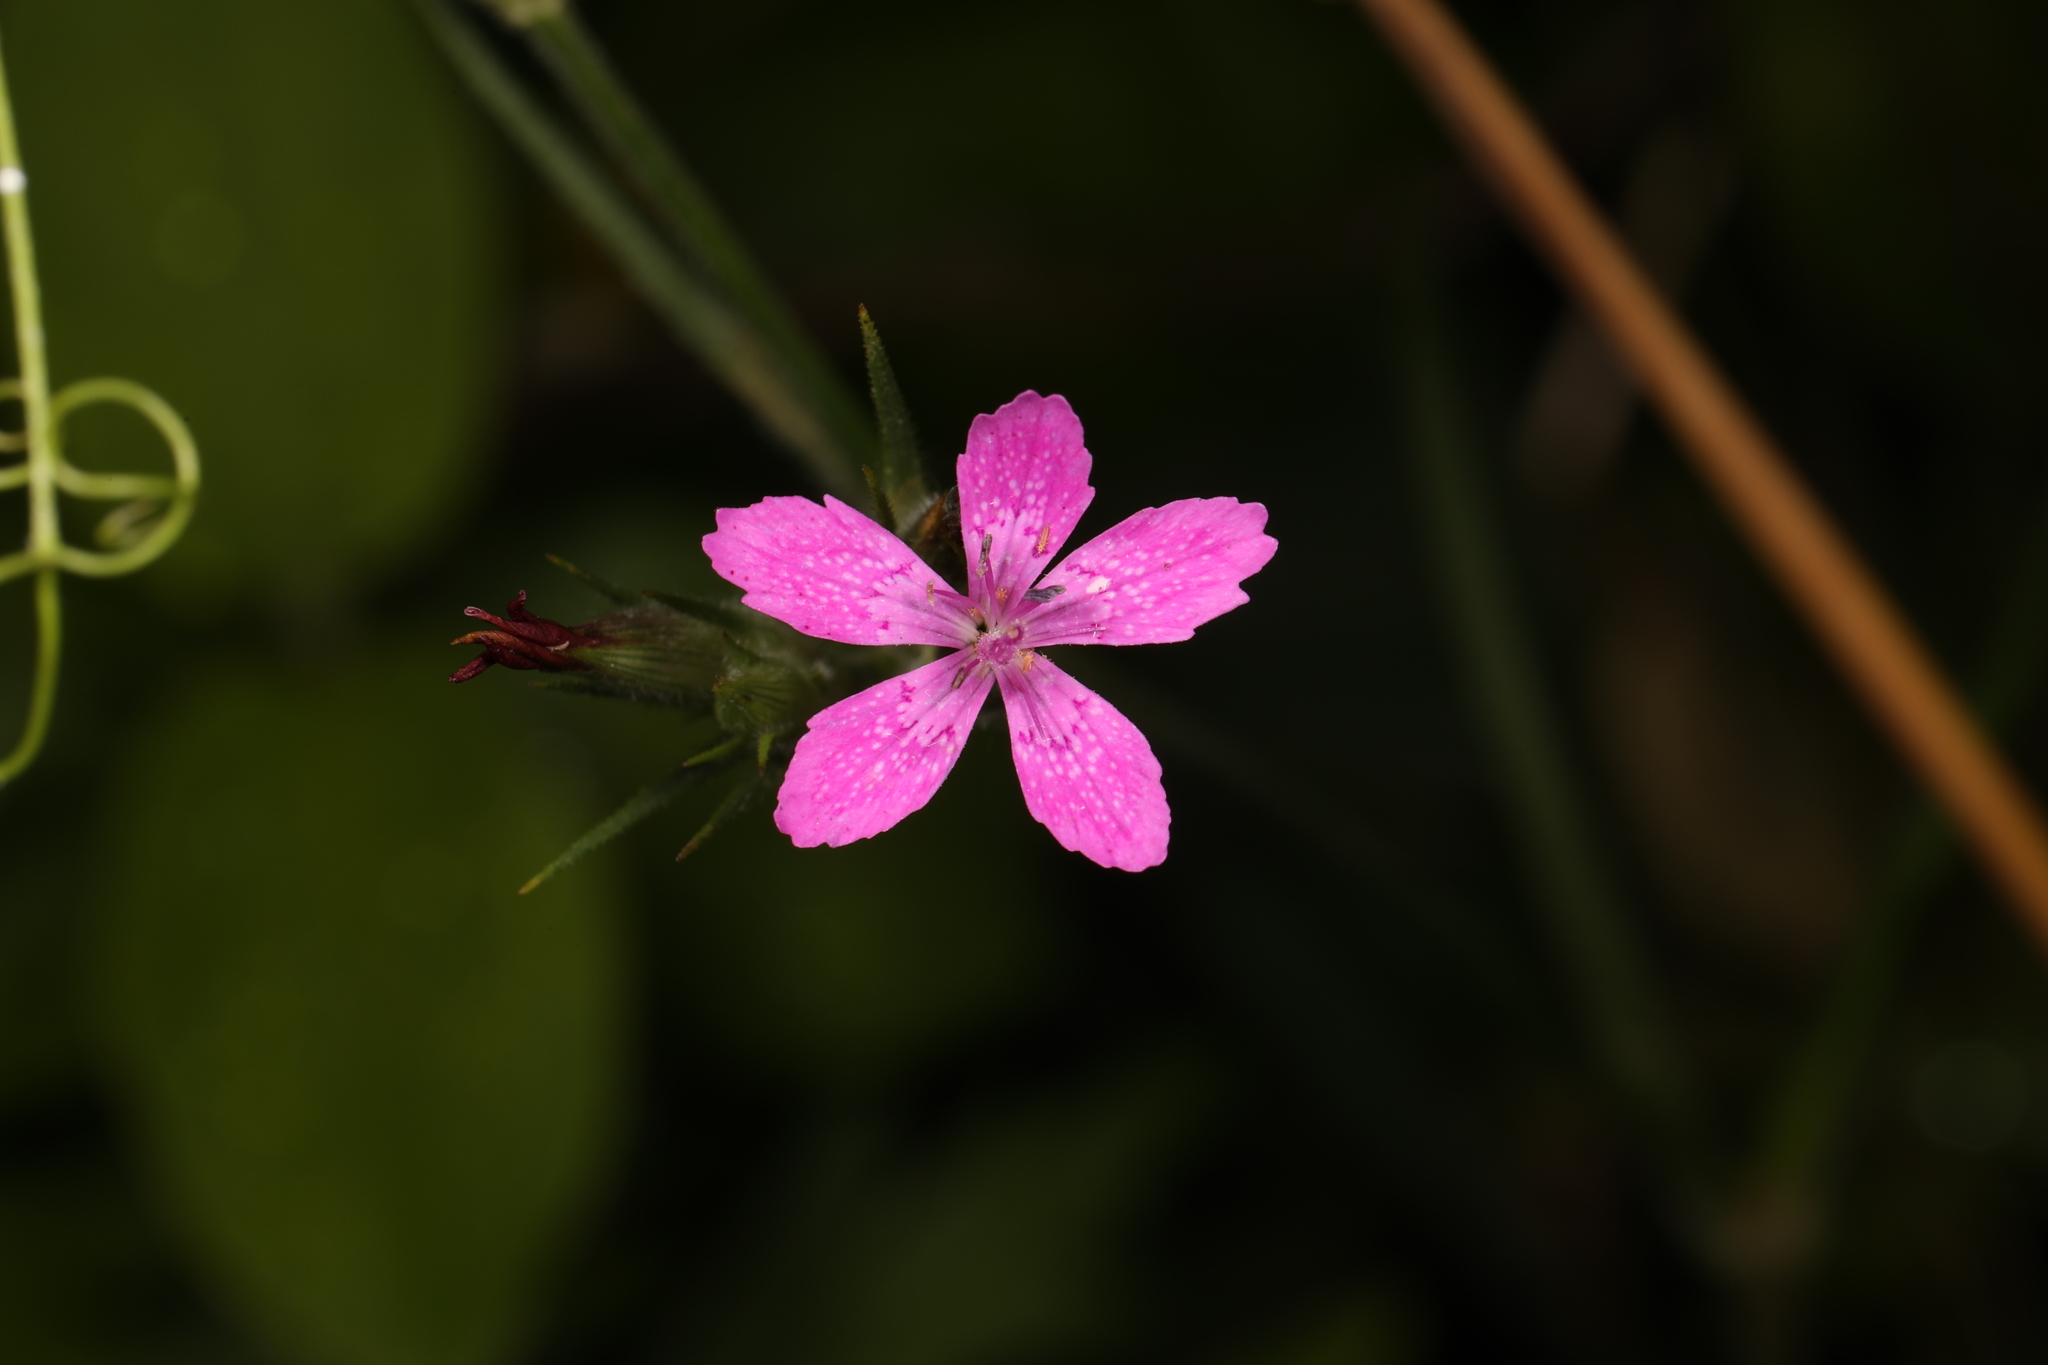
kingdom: Plantae
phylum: Tracheophyta
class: Magnoliopsida
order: Caryophyllales
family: Caryophyllaceae
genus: Dianthus
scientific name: Dianthus armeria
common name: Deptford pink
